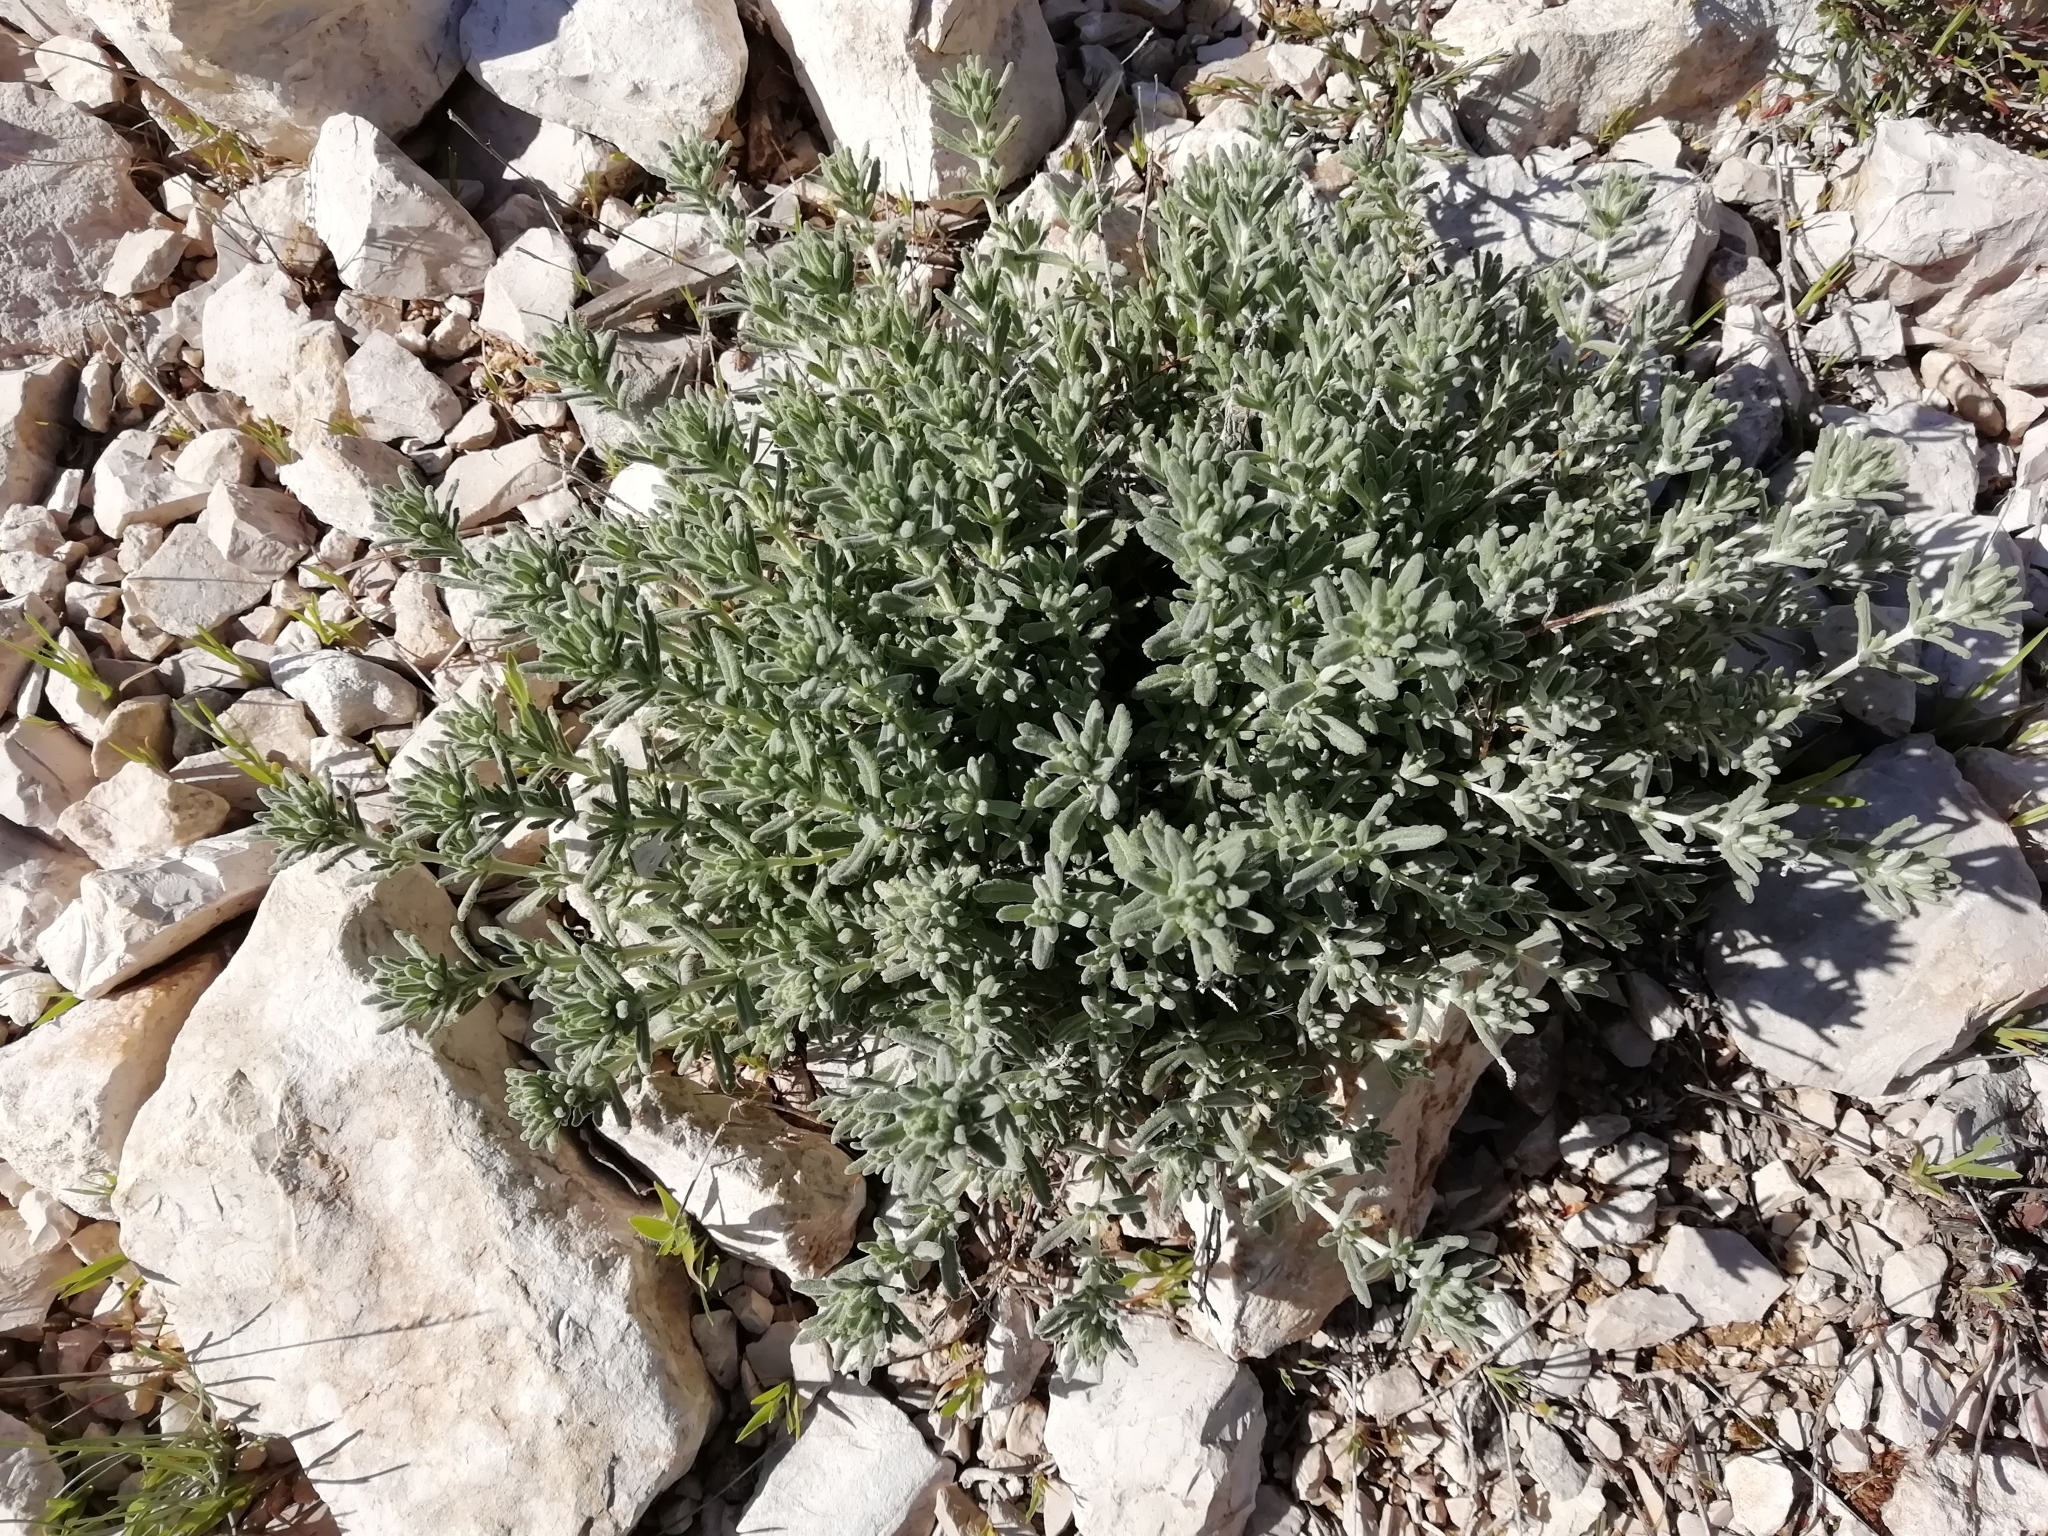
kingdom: Plantae
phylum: Tracheophyta
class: Magnoliopsida
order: Lamiales
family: Lamiaceae
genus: Teucrium
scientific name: Teucrium polium
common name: Poley
